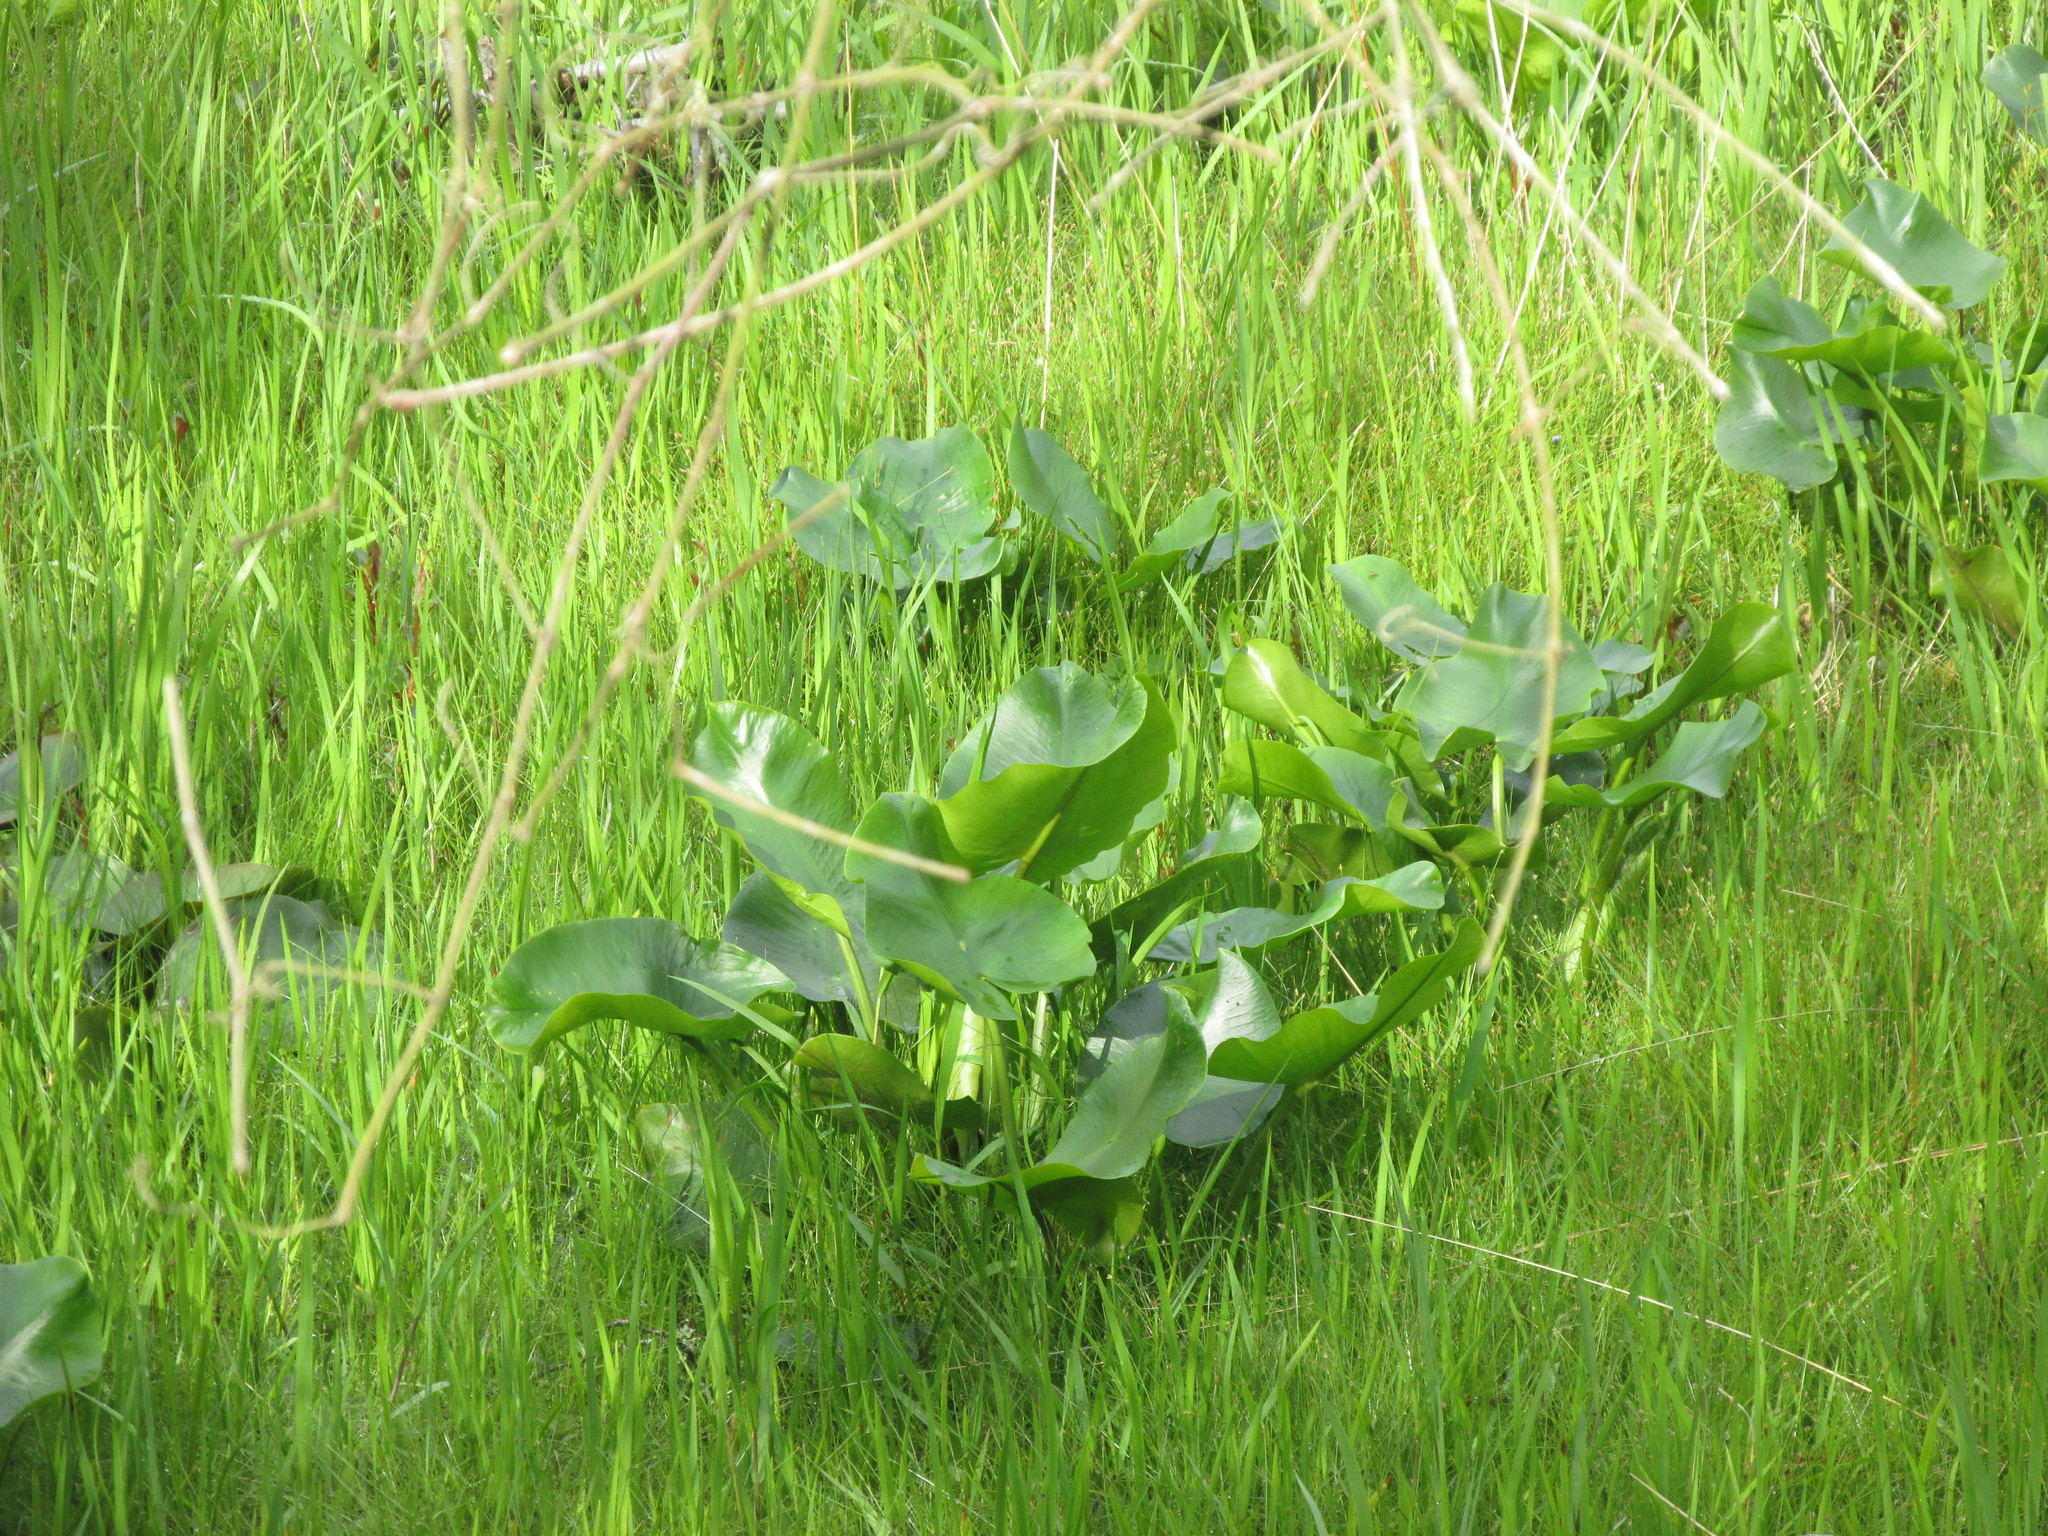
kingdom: Plantae
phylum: Tracheophyta
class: Magnoliopsida
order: Nymphaeales
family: Nymphaeaceae
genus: Nuphar
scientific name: Nuphar advena
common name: Spatter-dock
